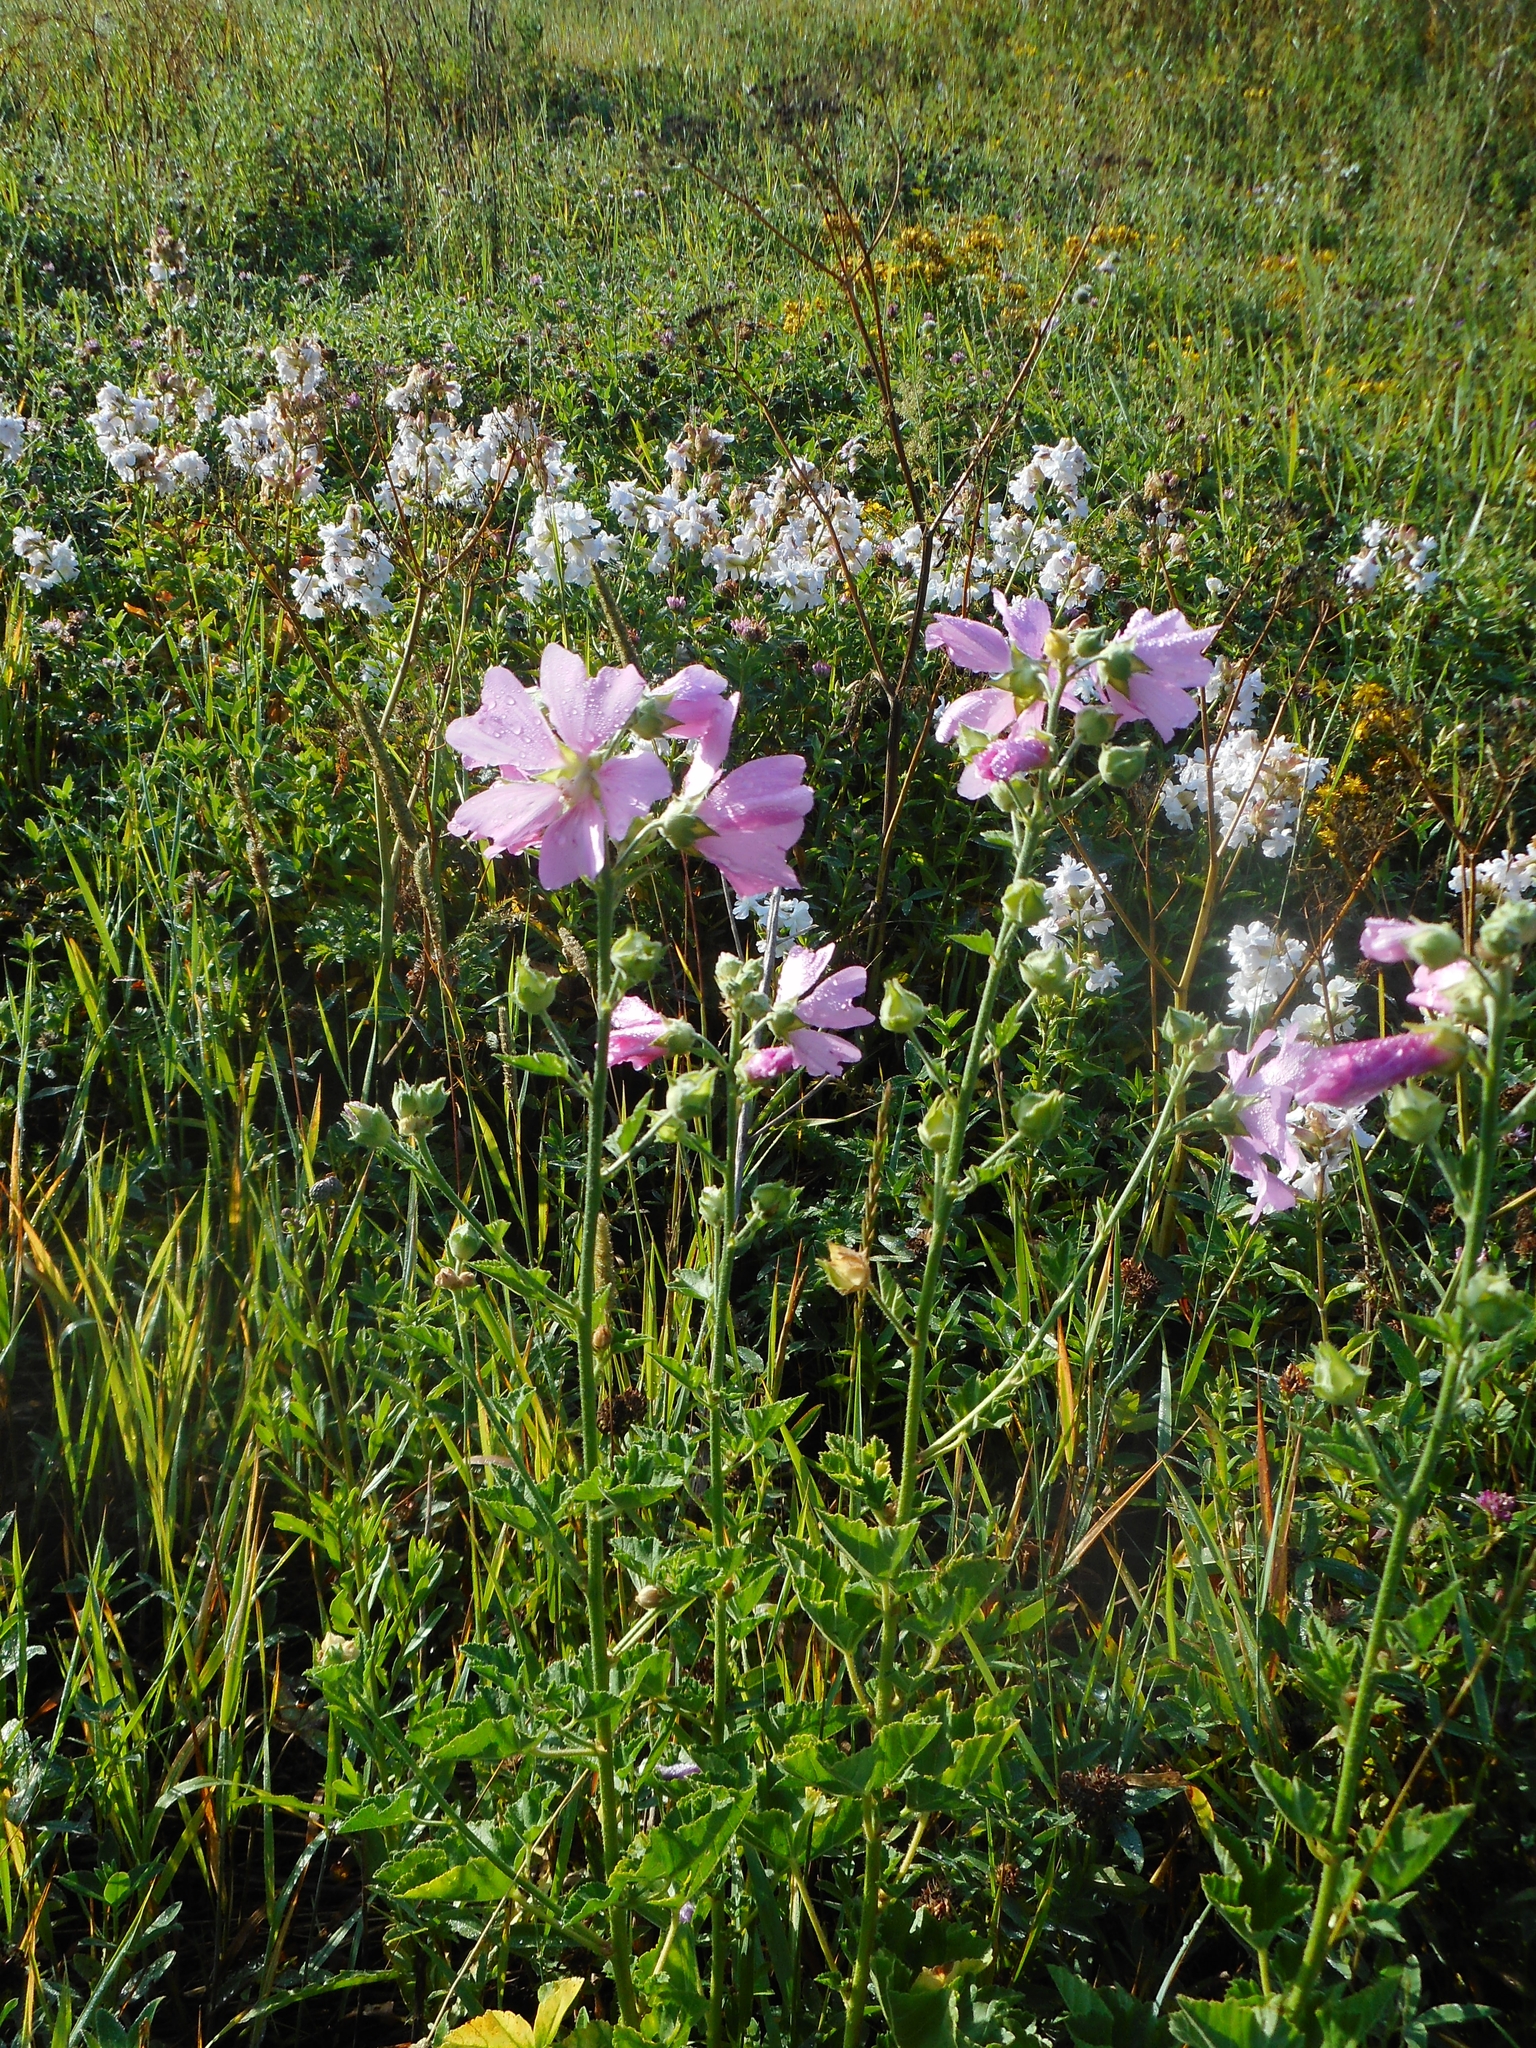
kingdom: Plantae
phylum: Tracheophyta
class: Magnoliopsida
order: Malvales
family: Malvaceae
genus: Malva
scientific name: Malva thuringiaca
